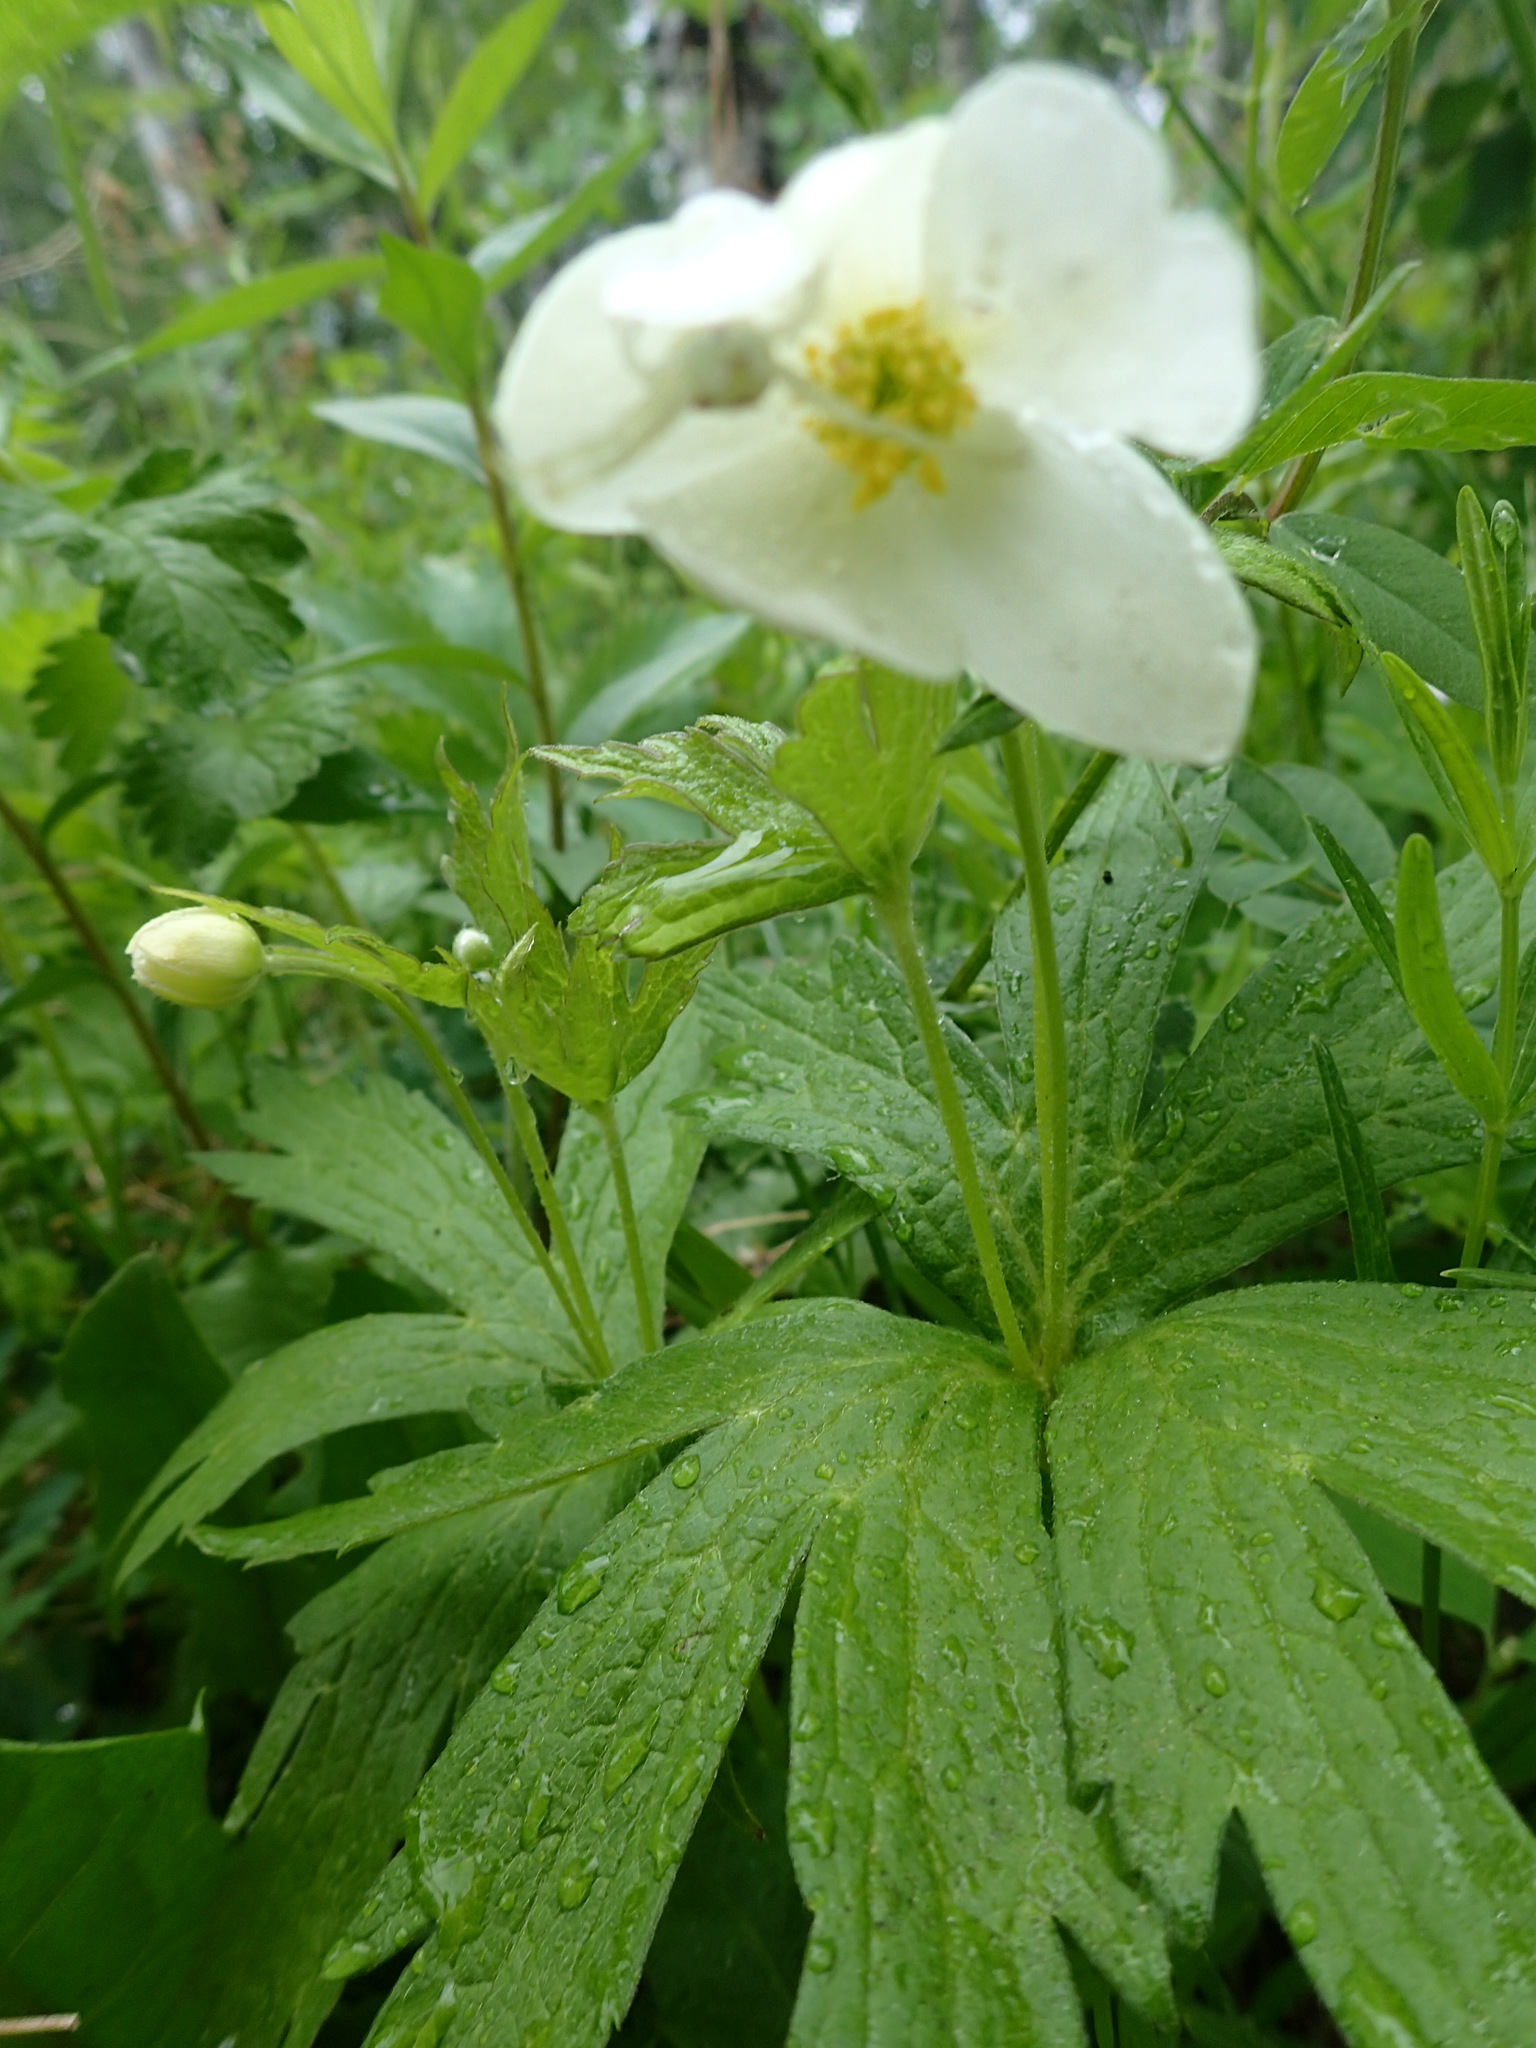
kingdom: Plantae
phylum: Tracheophyta
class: Magnoliopsida
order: Ranunculales
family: Ranunculaceae
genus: Anemonastrum
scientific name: Anemonastrum canadense
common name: Canada anemone
